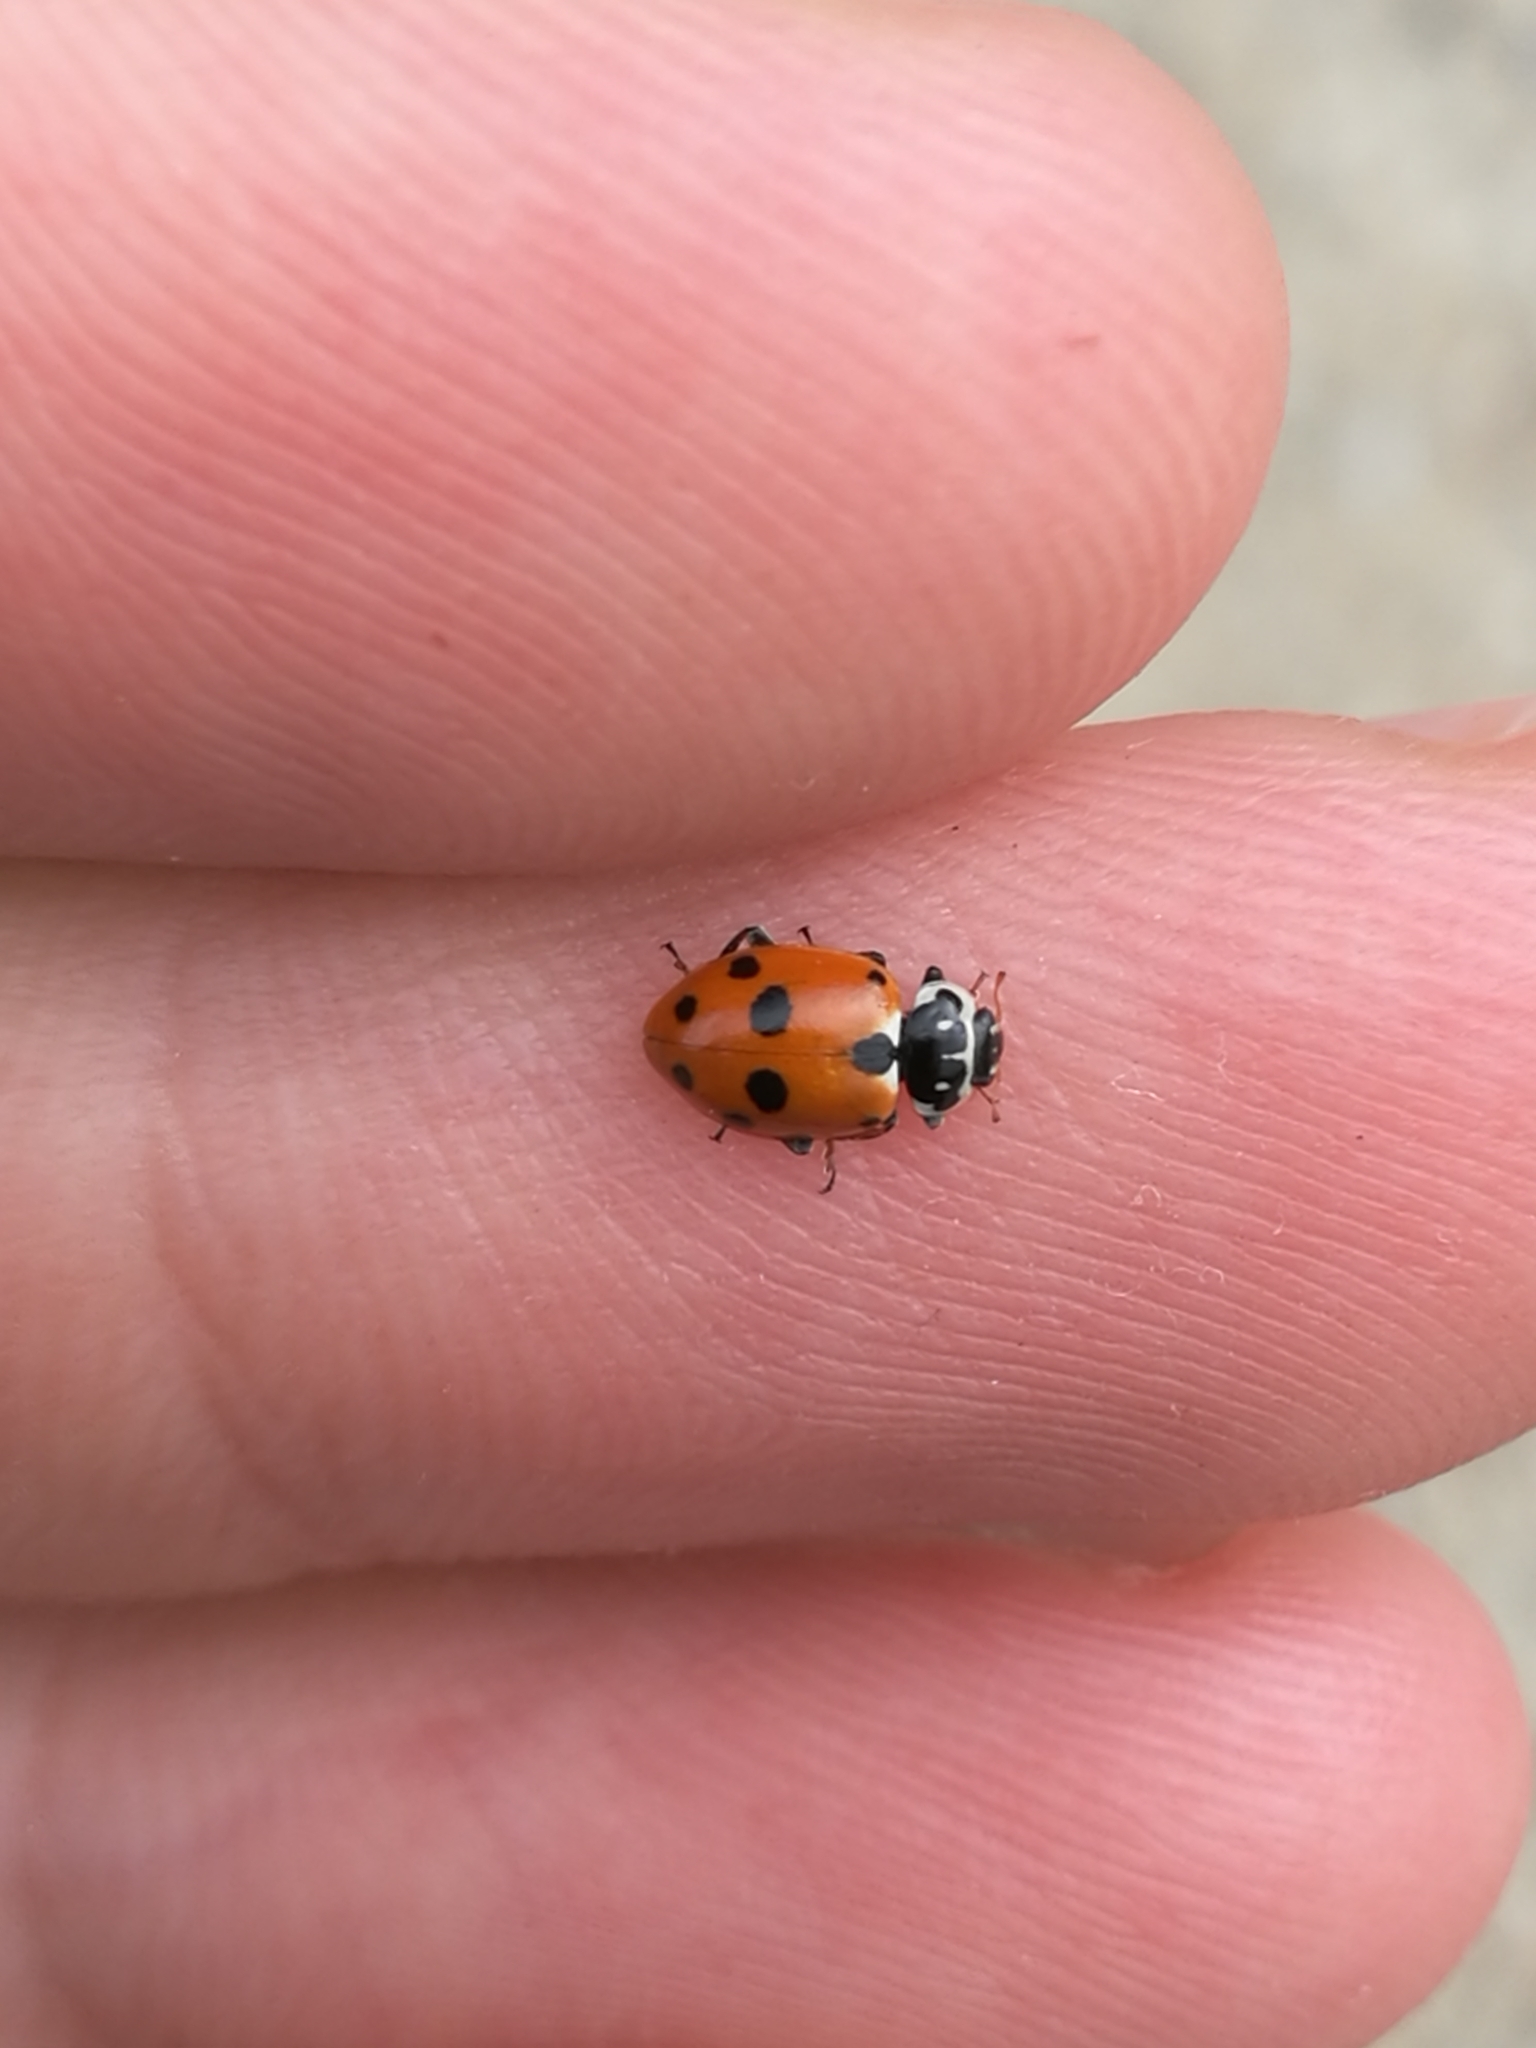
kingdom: Animalia
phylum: Arthropoda
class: Insecta
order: Coleoptera
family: Coccinellidae
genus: Hippodamia
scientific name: Hippodamia variegata
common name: Ladybird beetle
